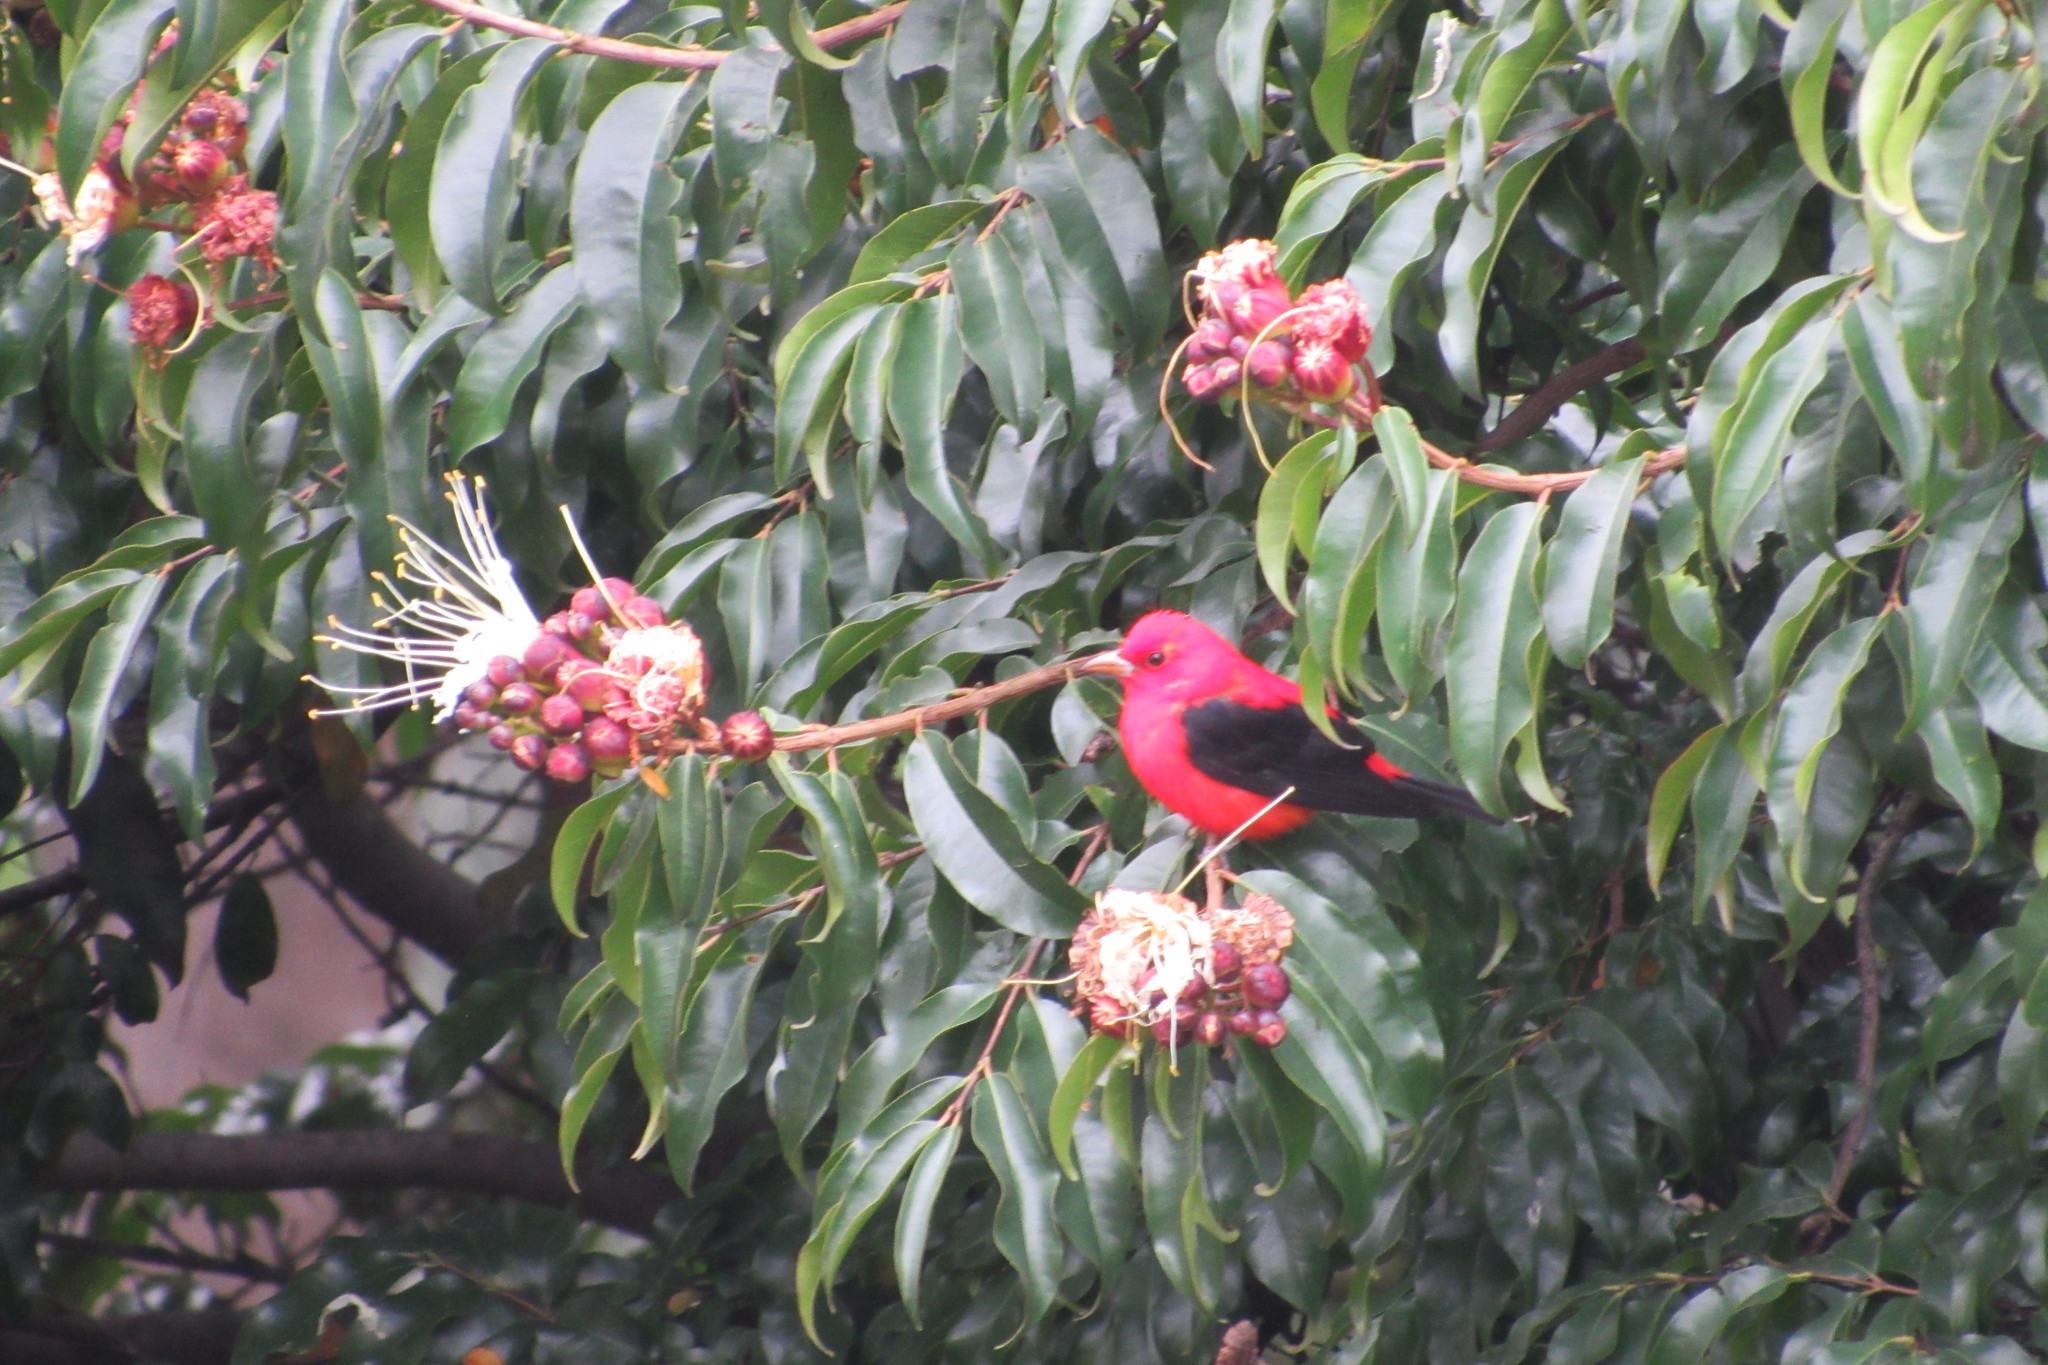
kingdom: Animalia
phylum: Chordata
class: Aves
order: Passeriformes
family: Cardinalidae
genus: Piranga
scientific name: Piranga olivacea
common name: Scarlet tanager
